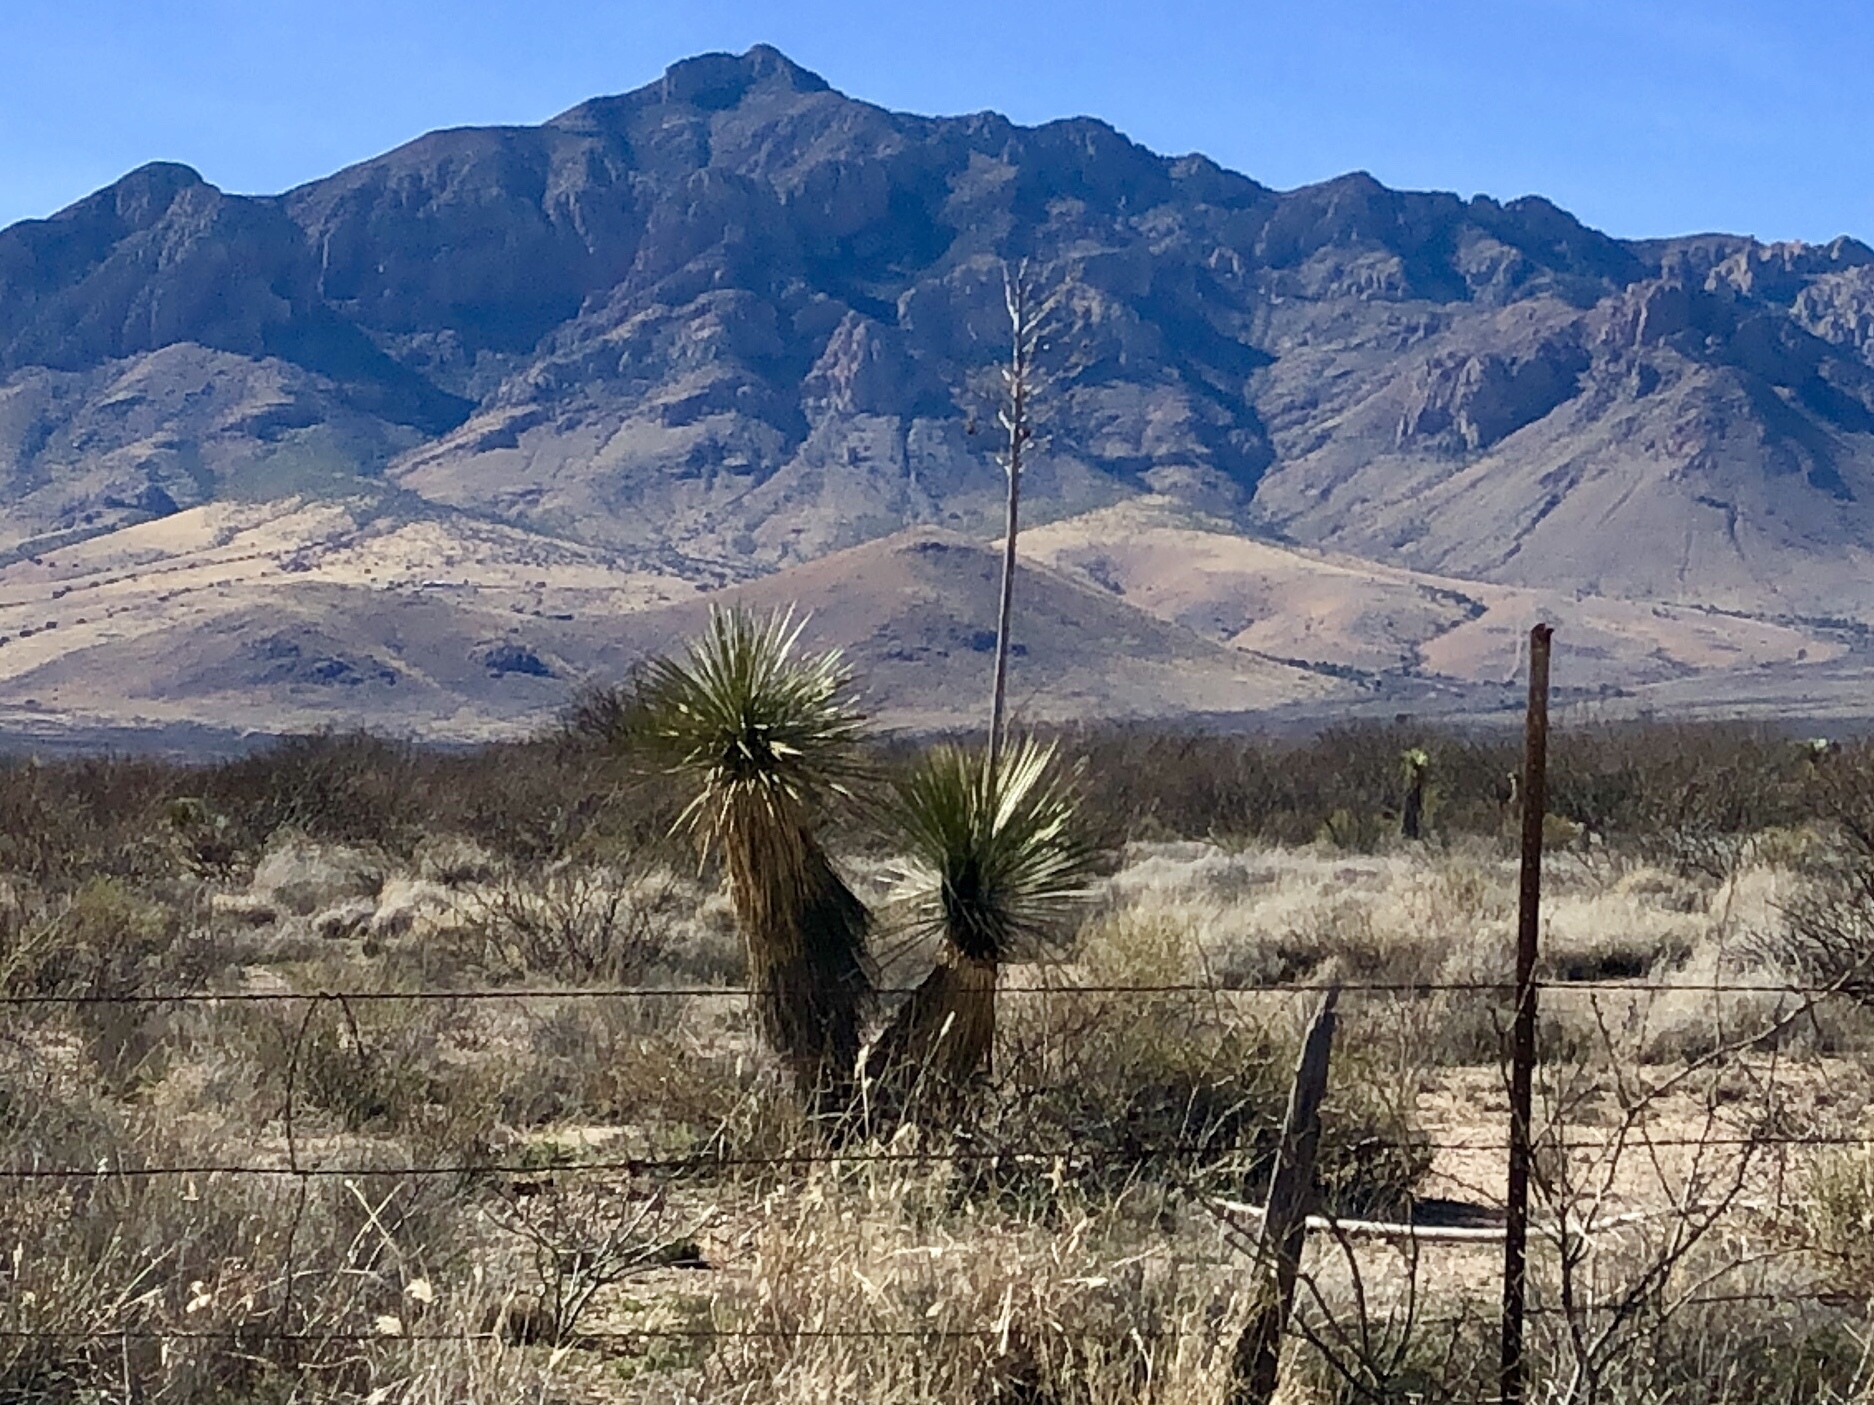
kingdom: Plantae
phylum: Tracheophyta
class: Liliopsida
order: Asparagales
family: Asparagaceae
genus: Yucca
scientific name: Yucca elata
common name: Palmella
